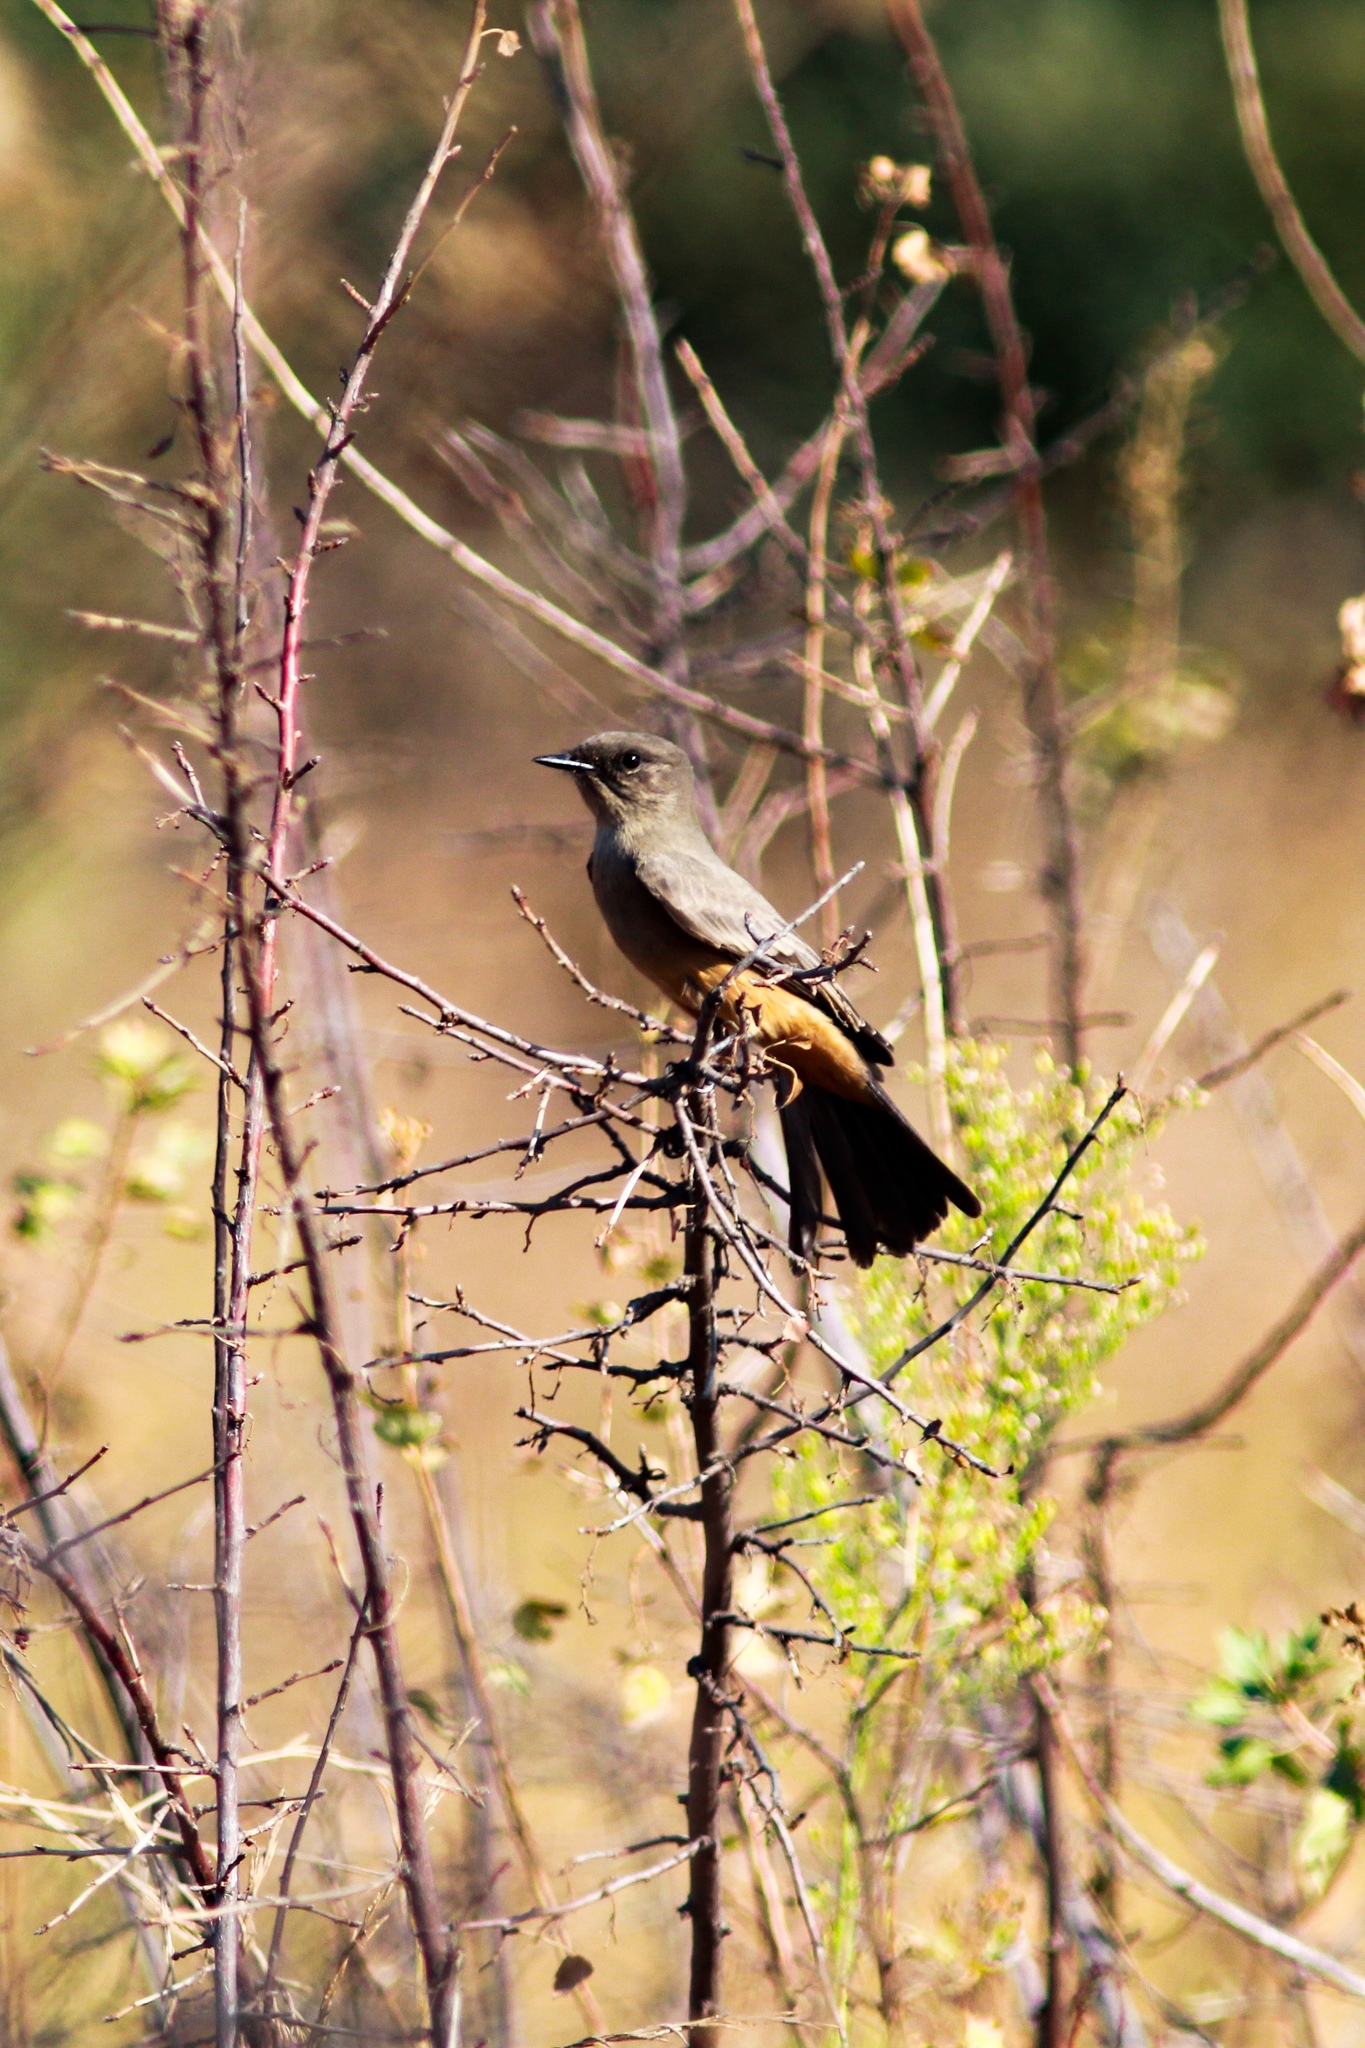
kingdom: Animalia
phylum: Chordata
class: Aves
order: Passeriformes
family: Tyrannidae
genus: Sayornis
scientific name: Sayornis saya
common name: Say's phoebe
